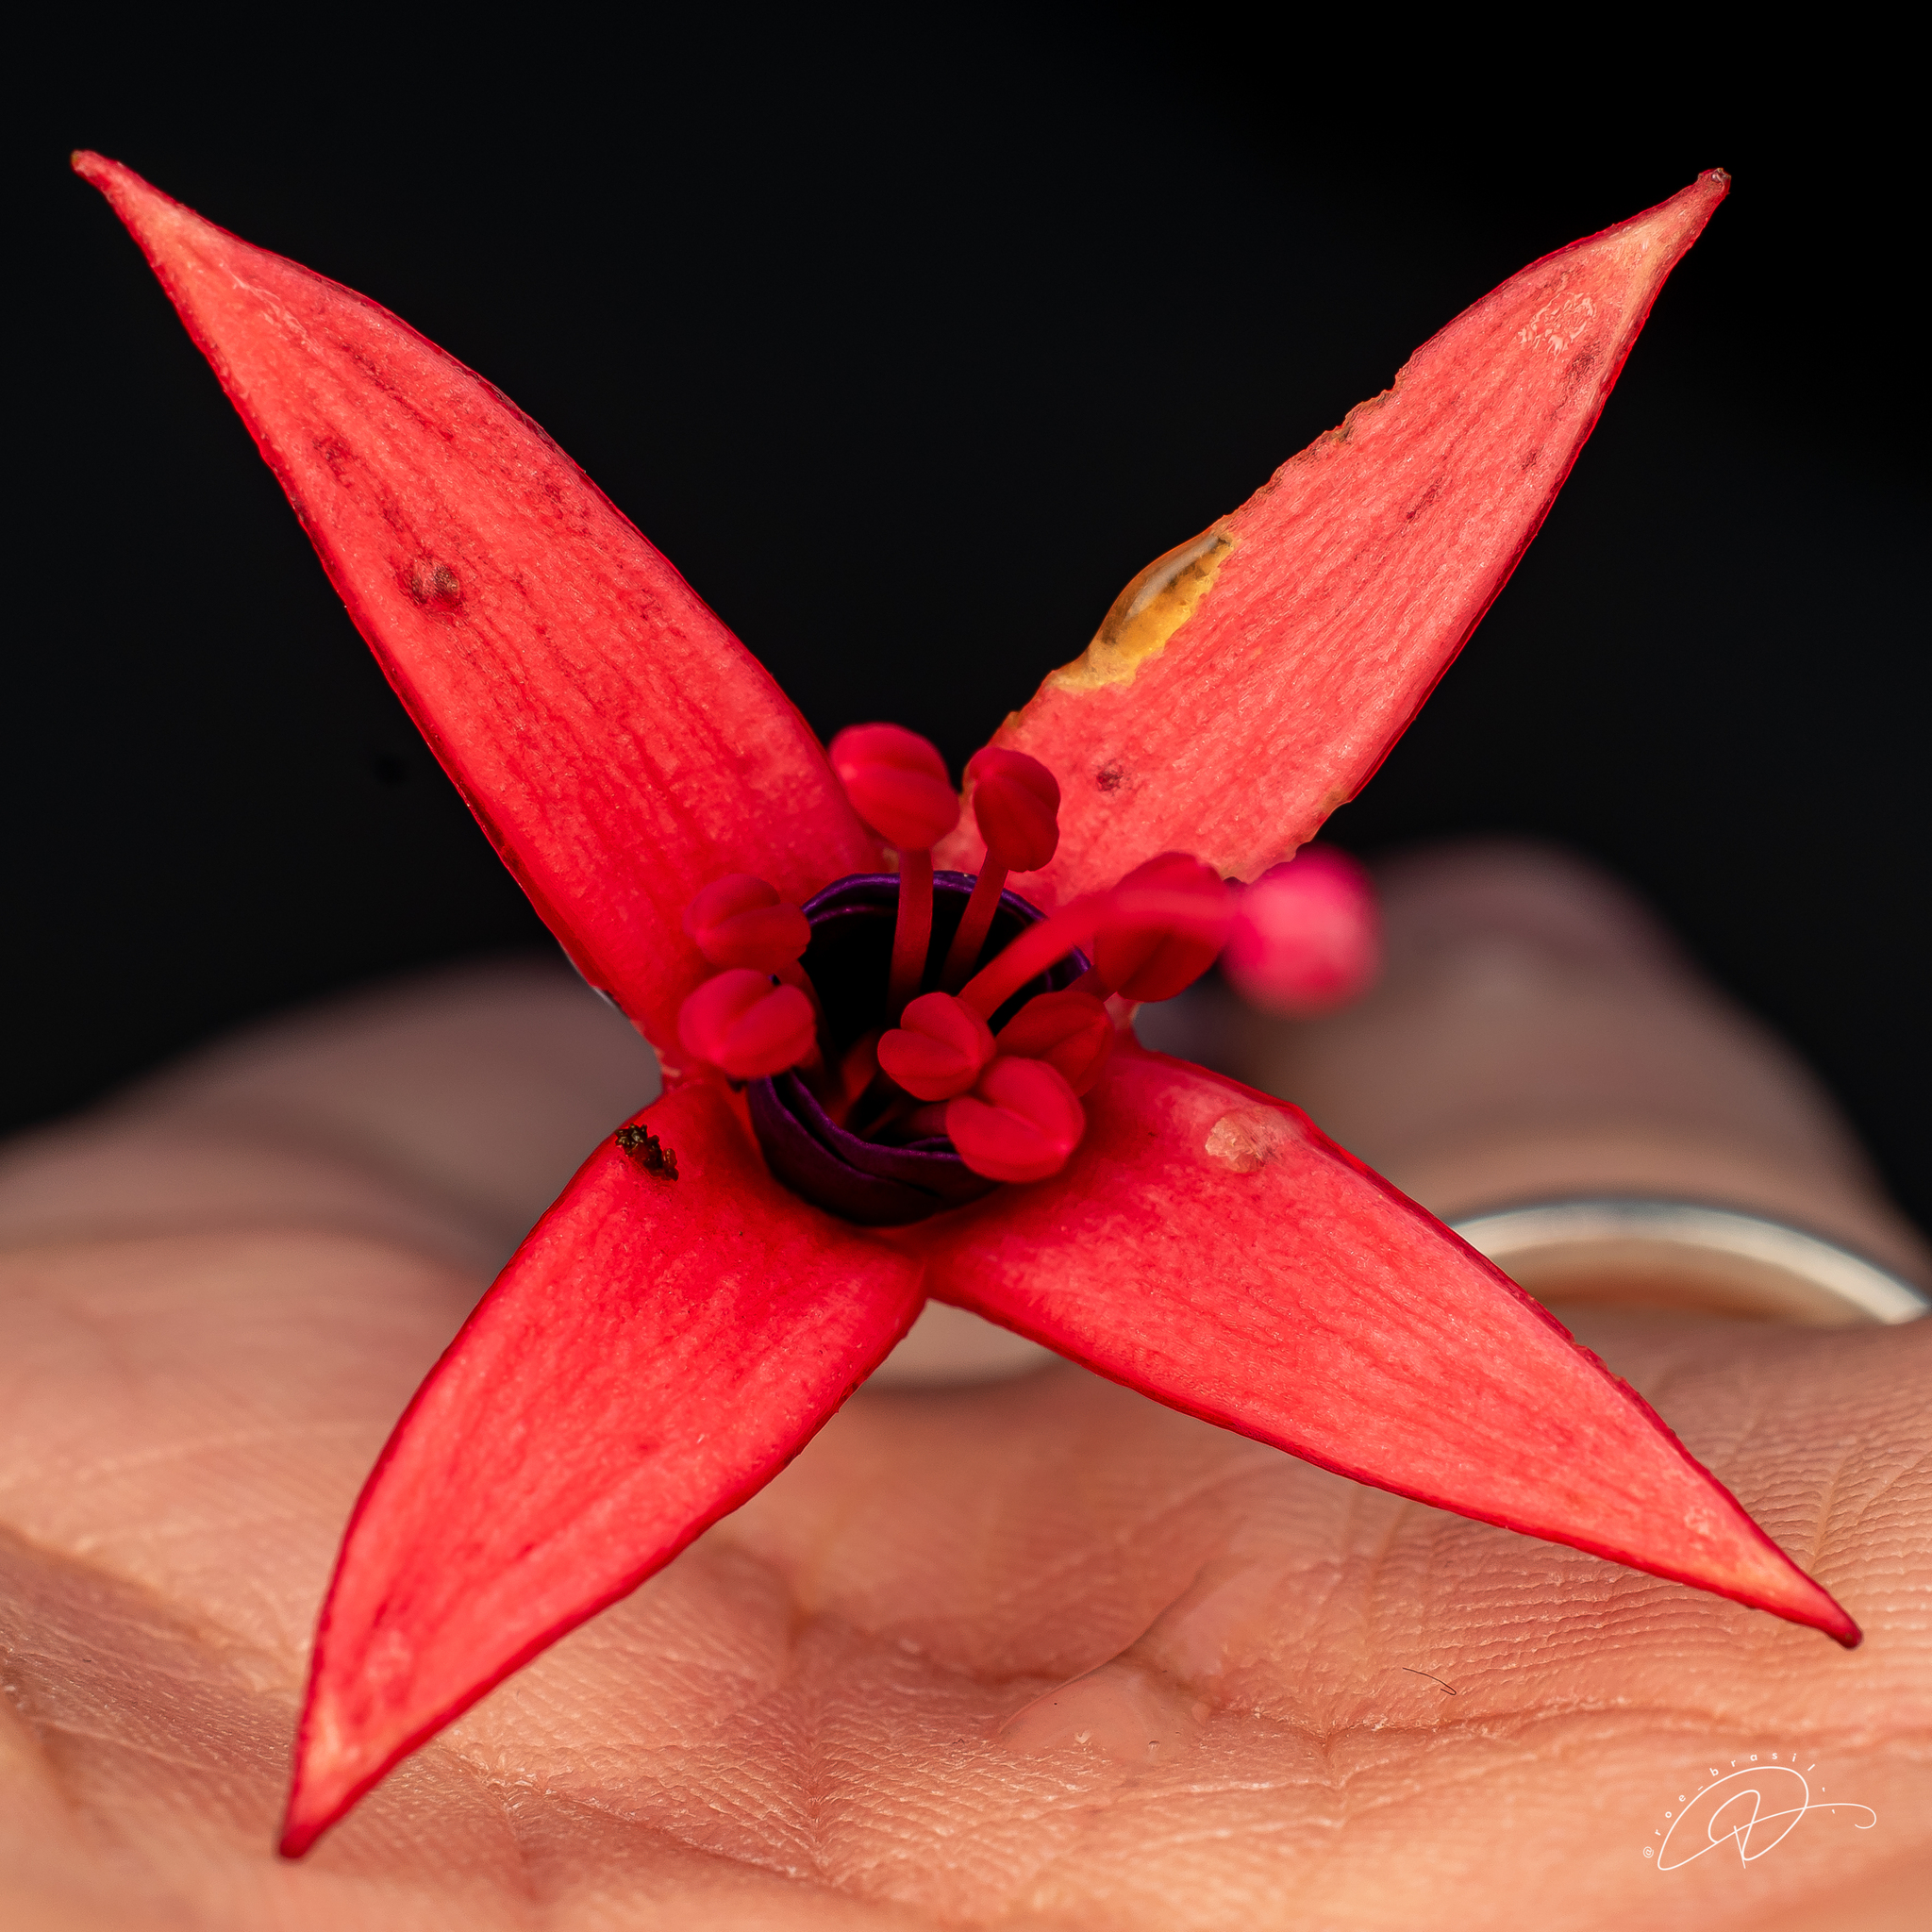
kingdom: Plantae
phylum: Tracheophyta
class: Magnoliopsida
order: Myrtales
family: Onagraceae
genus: Fuchsia
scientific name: Fuchsia regia
